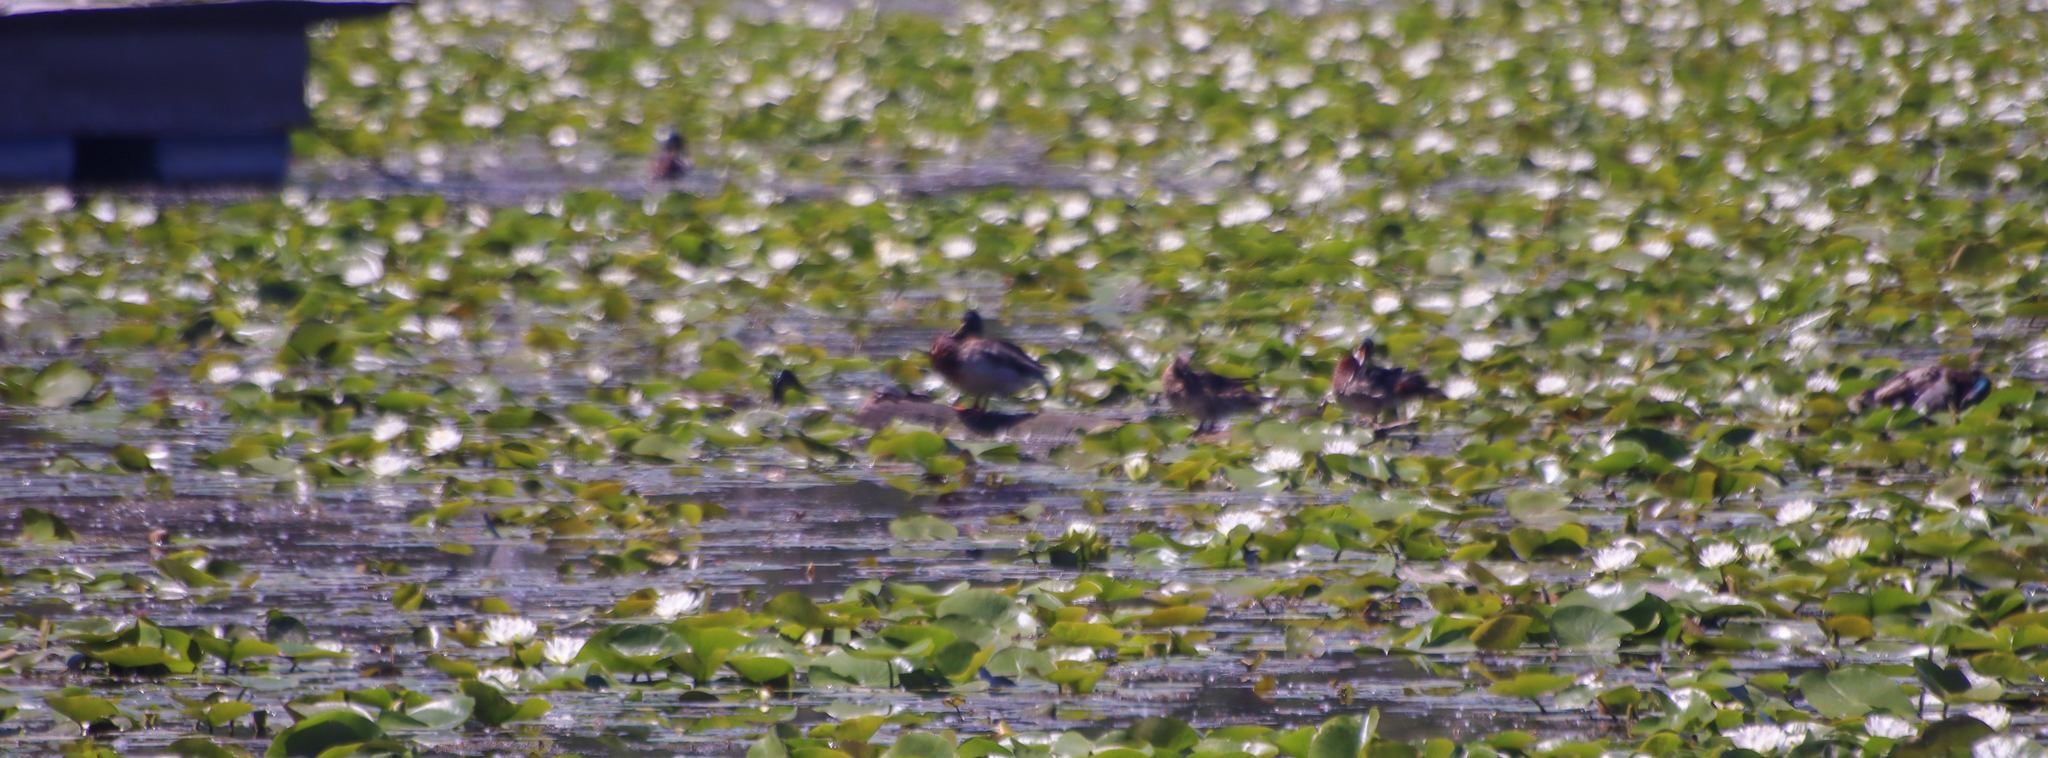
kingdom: Animalia
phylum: Chordata
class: Aves
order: Anseriformes
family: Anatidae
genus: Anas
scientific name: Anas platyrhynchos
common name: Mallard
